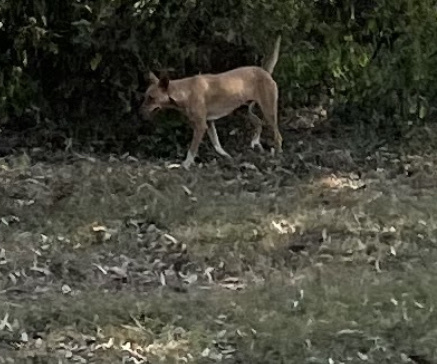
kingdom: Animalia
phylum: Chordata
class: Mammalia
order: Carnivora
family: Canidae
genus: Canis
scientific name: Canis lupus
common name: Gray wolf
